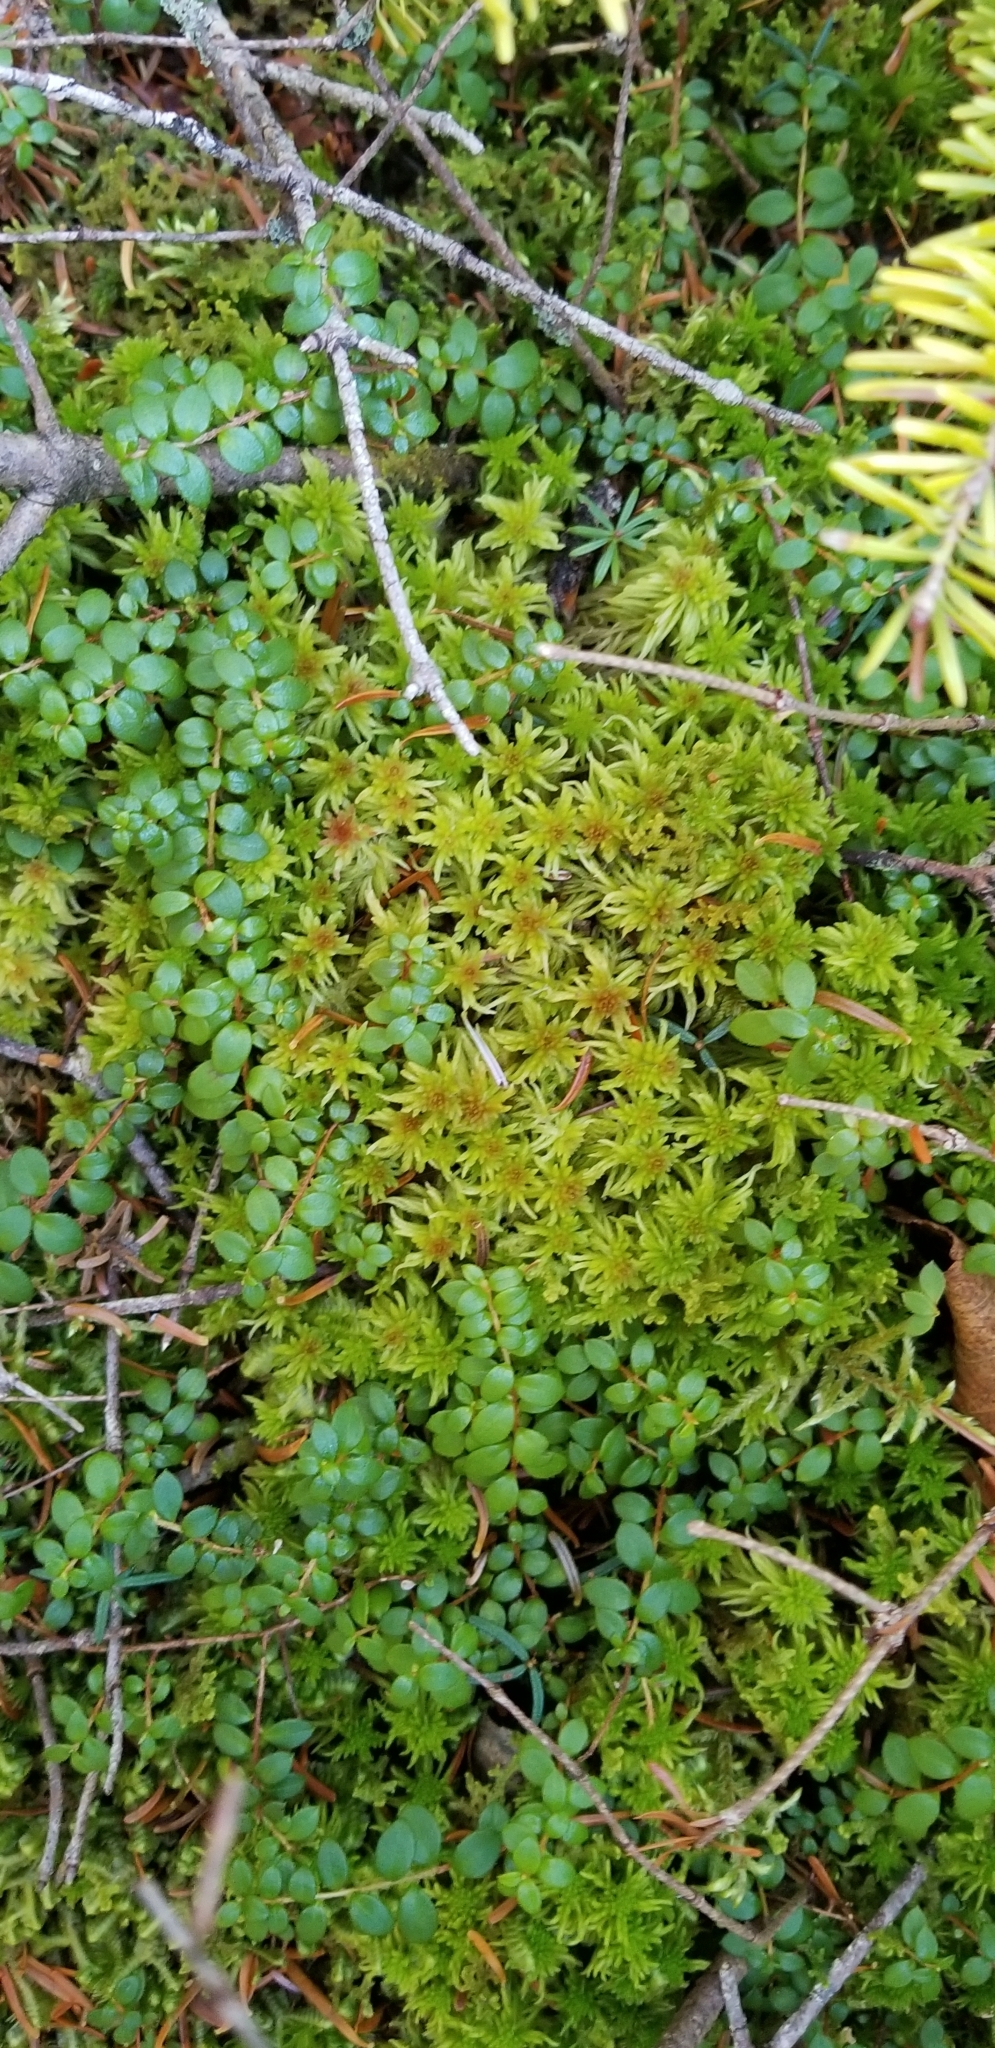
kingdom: Plantae
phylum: Tracheophyta
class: Magnoliopsida
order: Ericales
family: Ericaceae
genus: Gaultheria
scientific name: Gaultheria hispidula
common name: Cancer wintergreen
